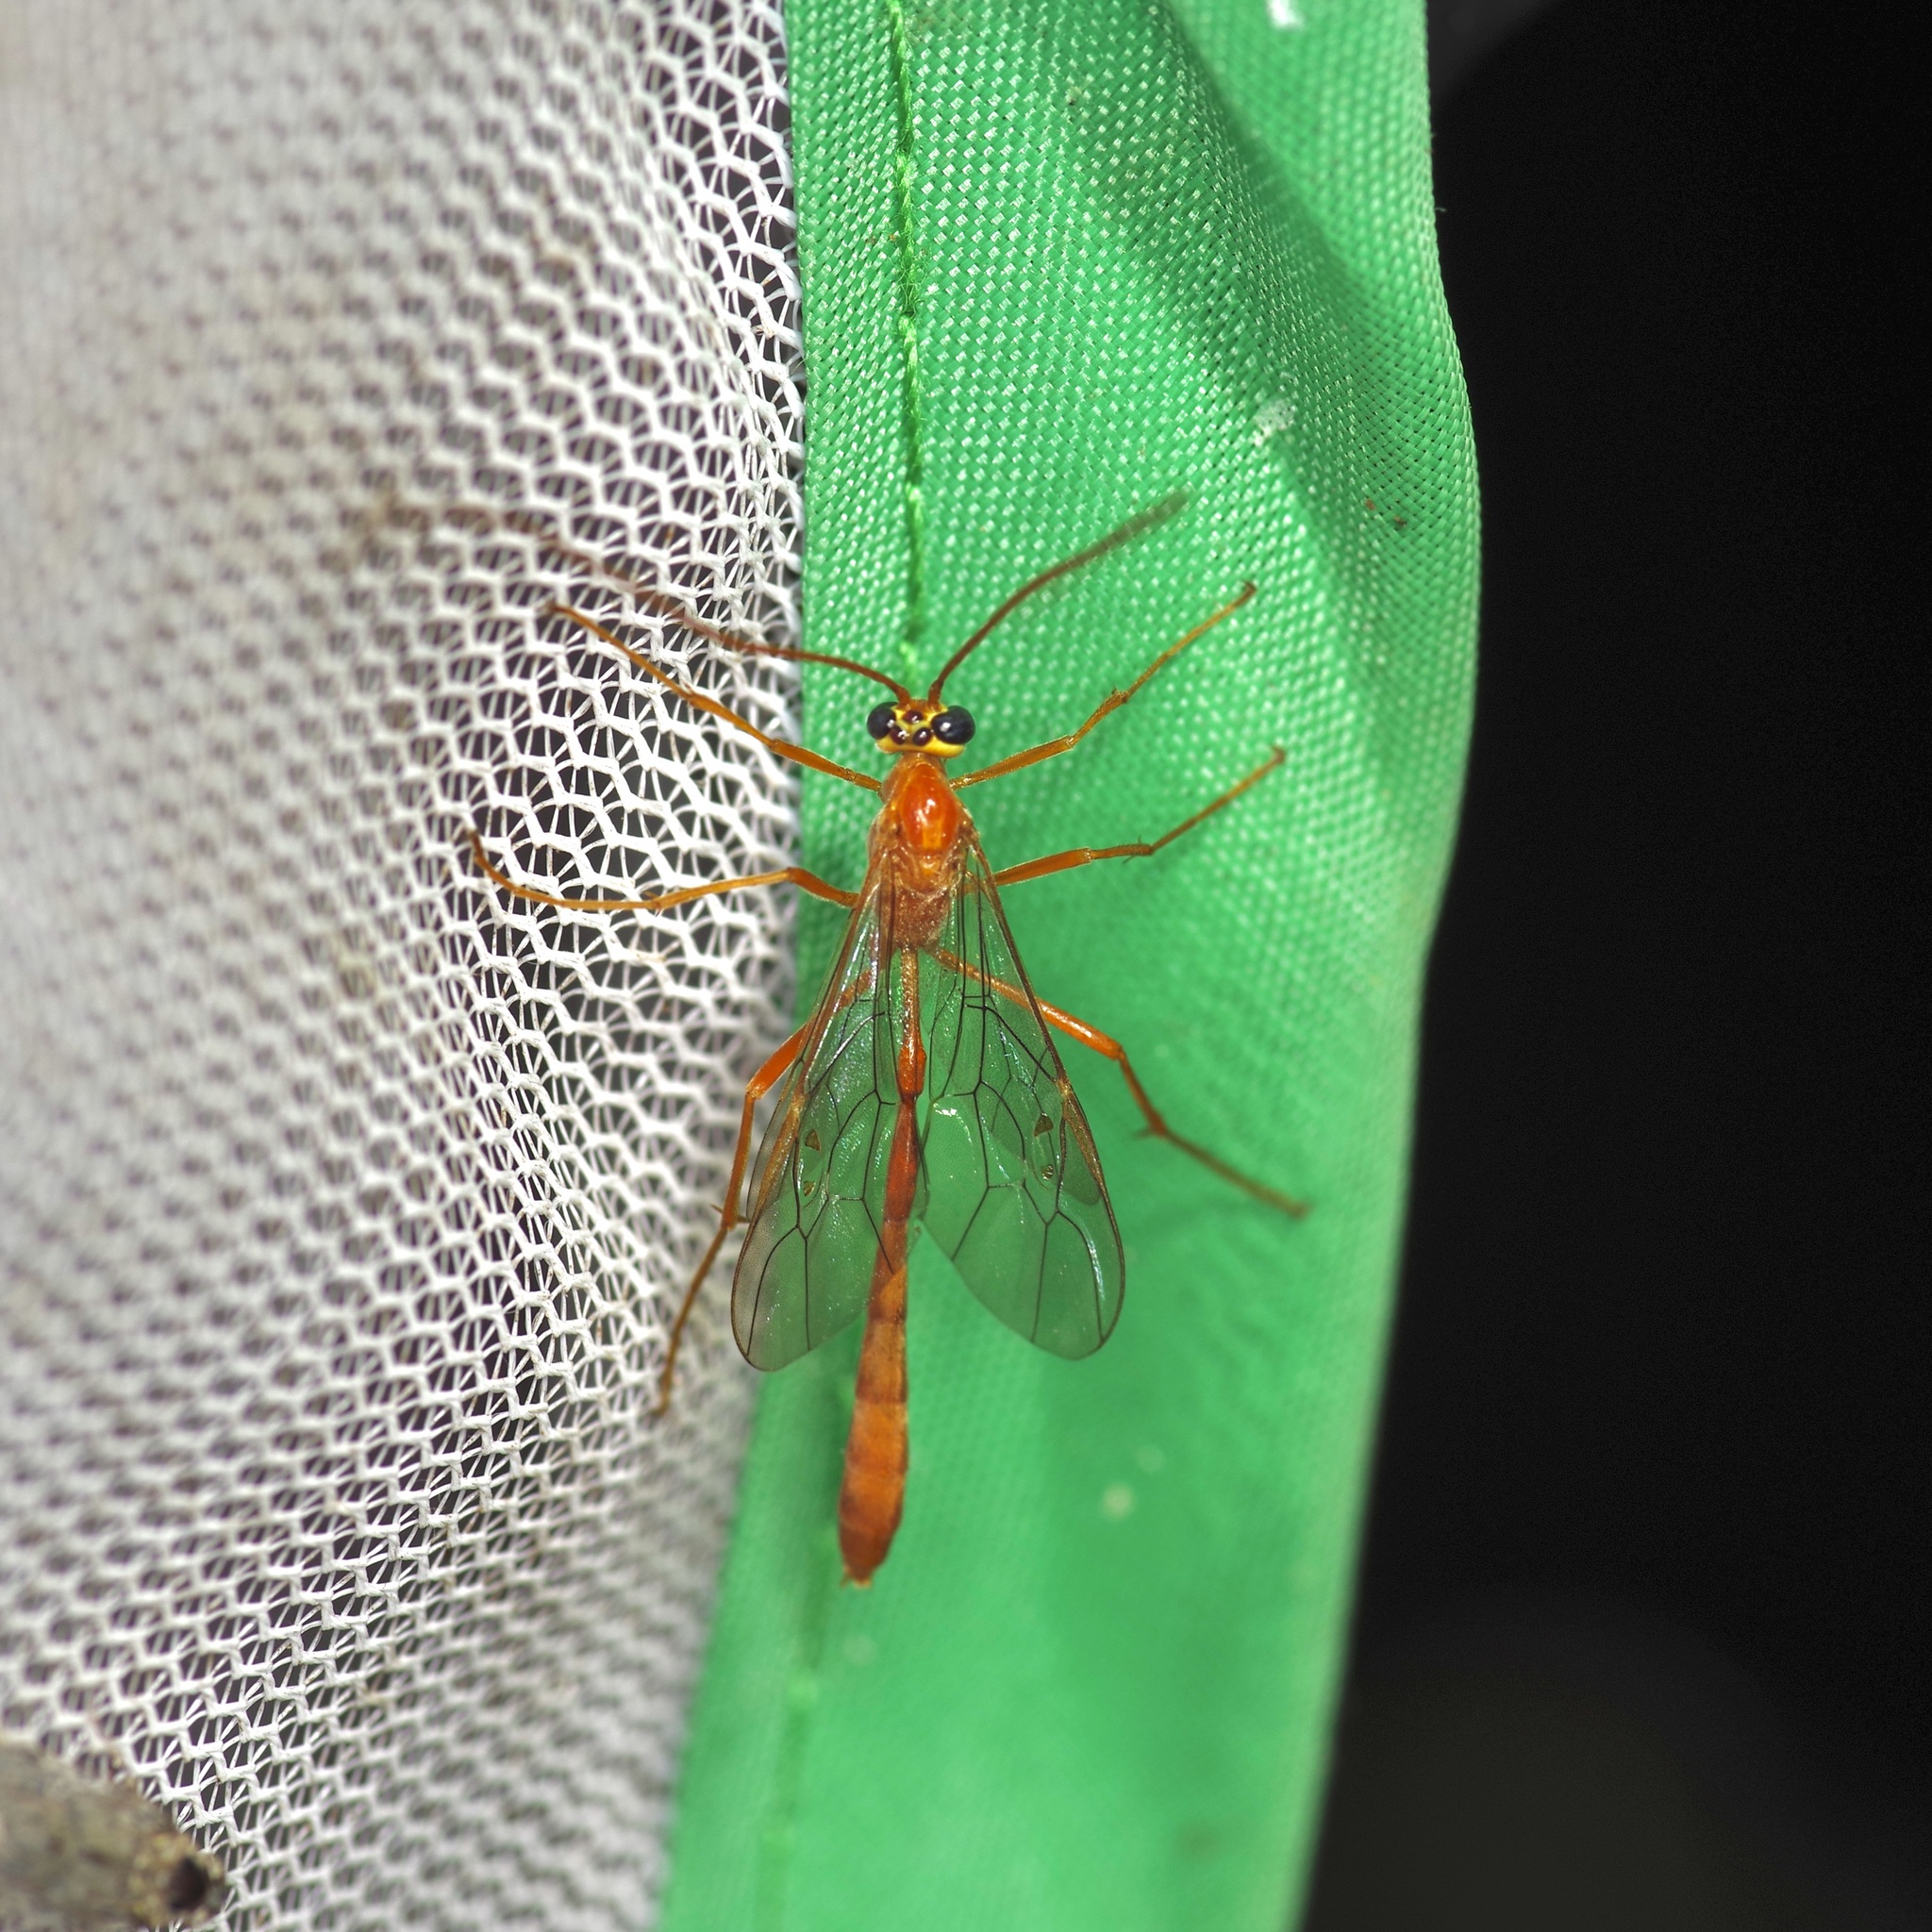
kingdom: Animalia
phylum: Arthropoda
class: Insecta
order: Hymenoptera
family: Ichneumonidae
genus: Enicospilus
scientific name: Enicospilus purgatus
